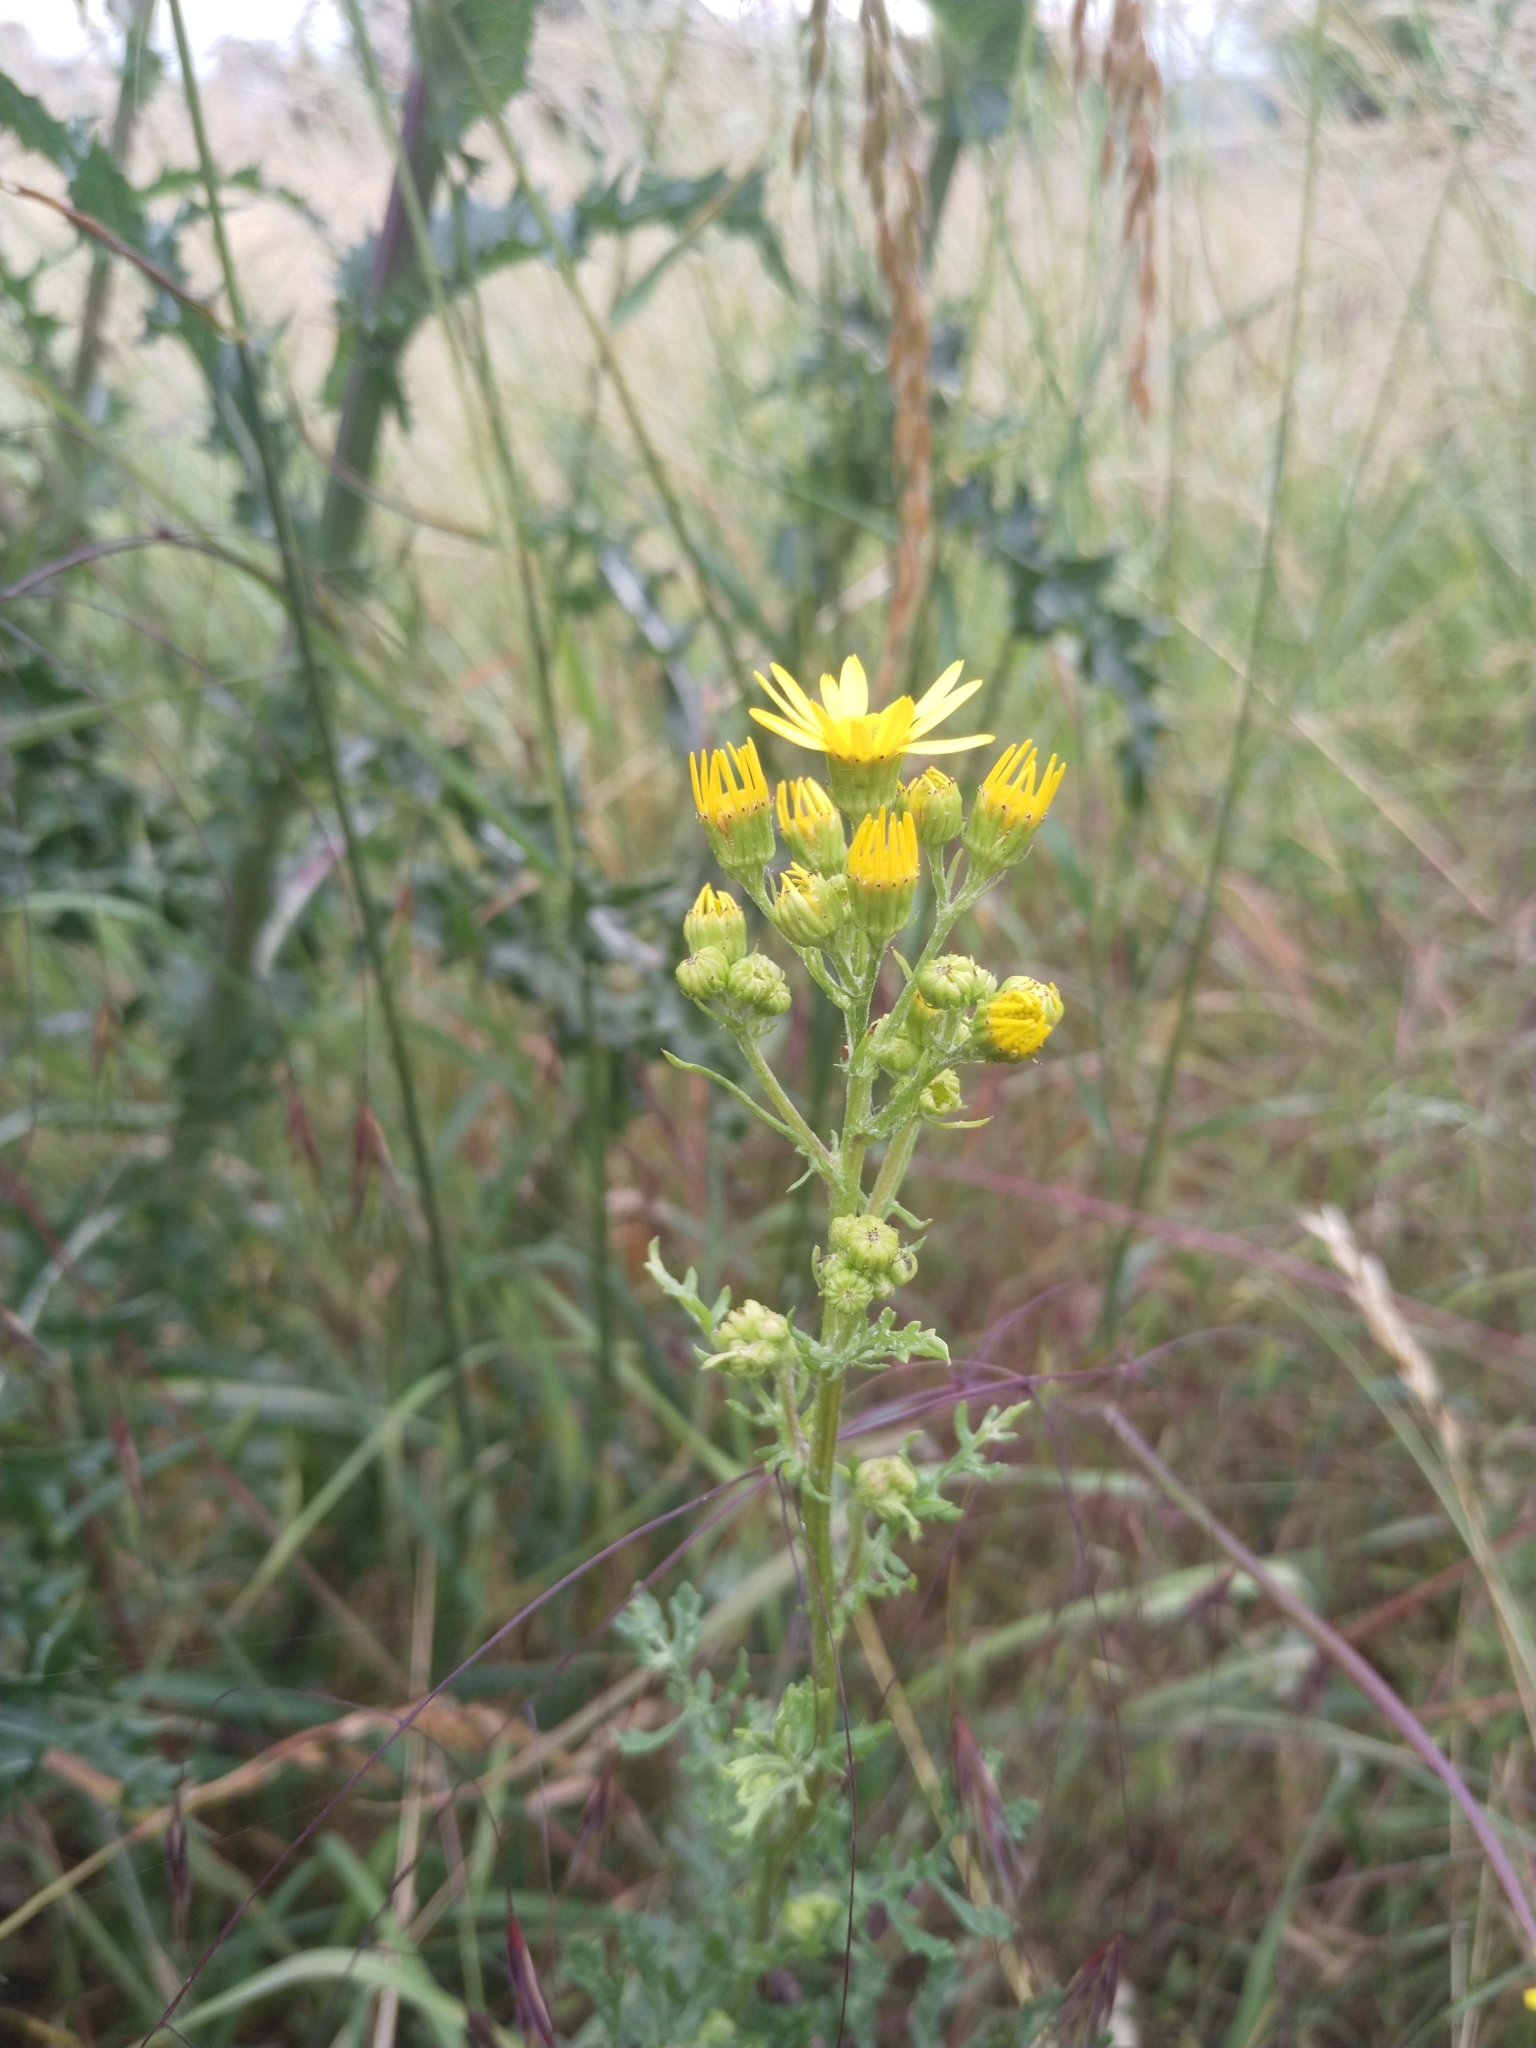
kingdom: Plantae
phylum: Tracheophyta
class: Magnoliopsida
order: Asterales
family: Asteraceae
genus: Jacobaea
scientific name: Jacobaea vulgaris
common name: Stinking willie
